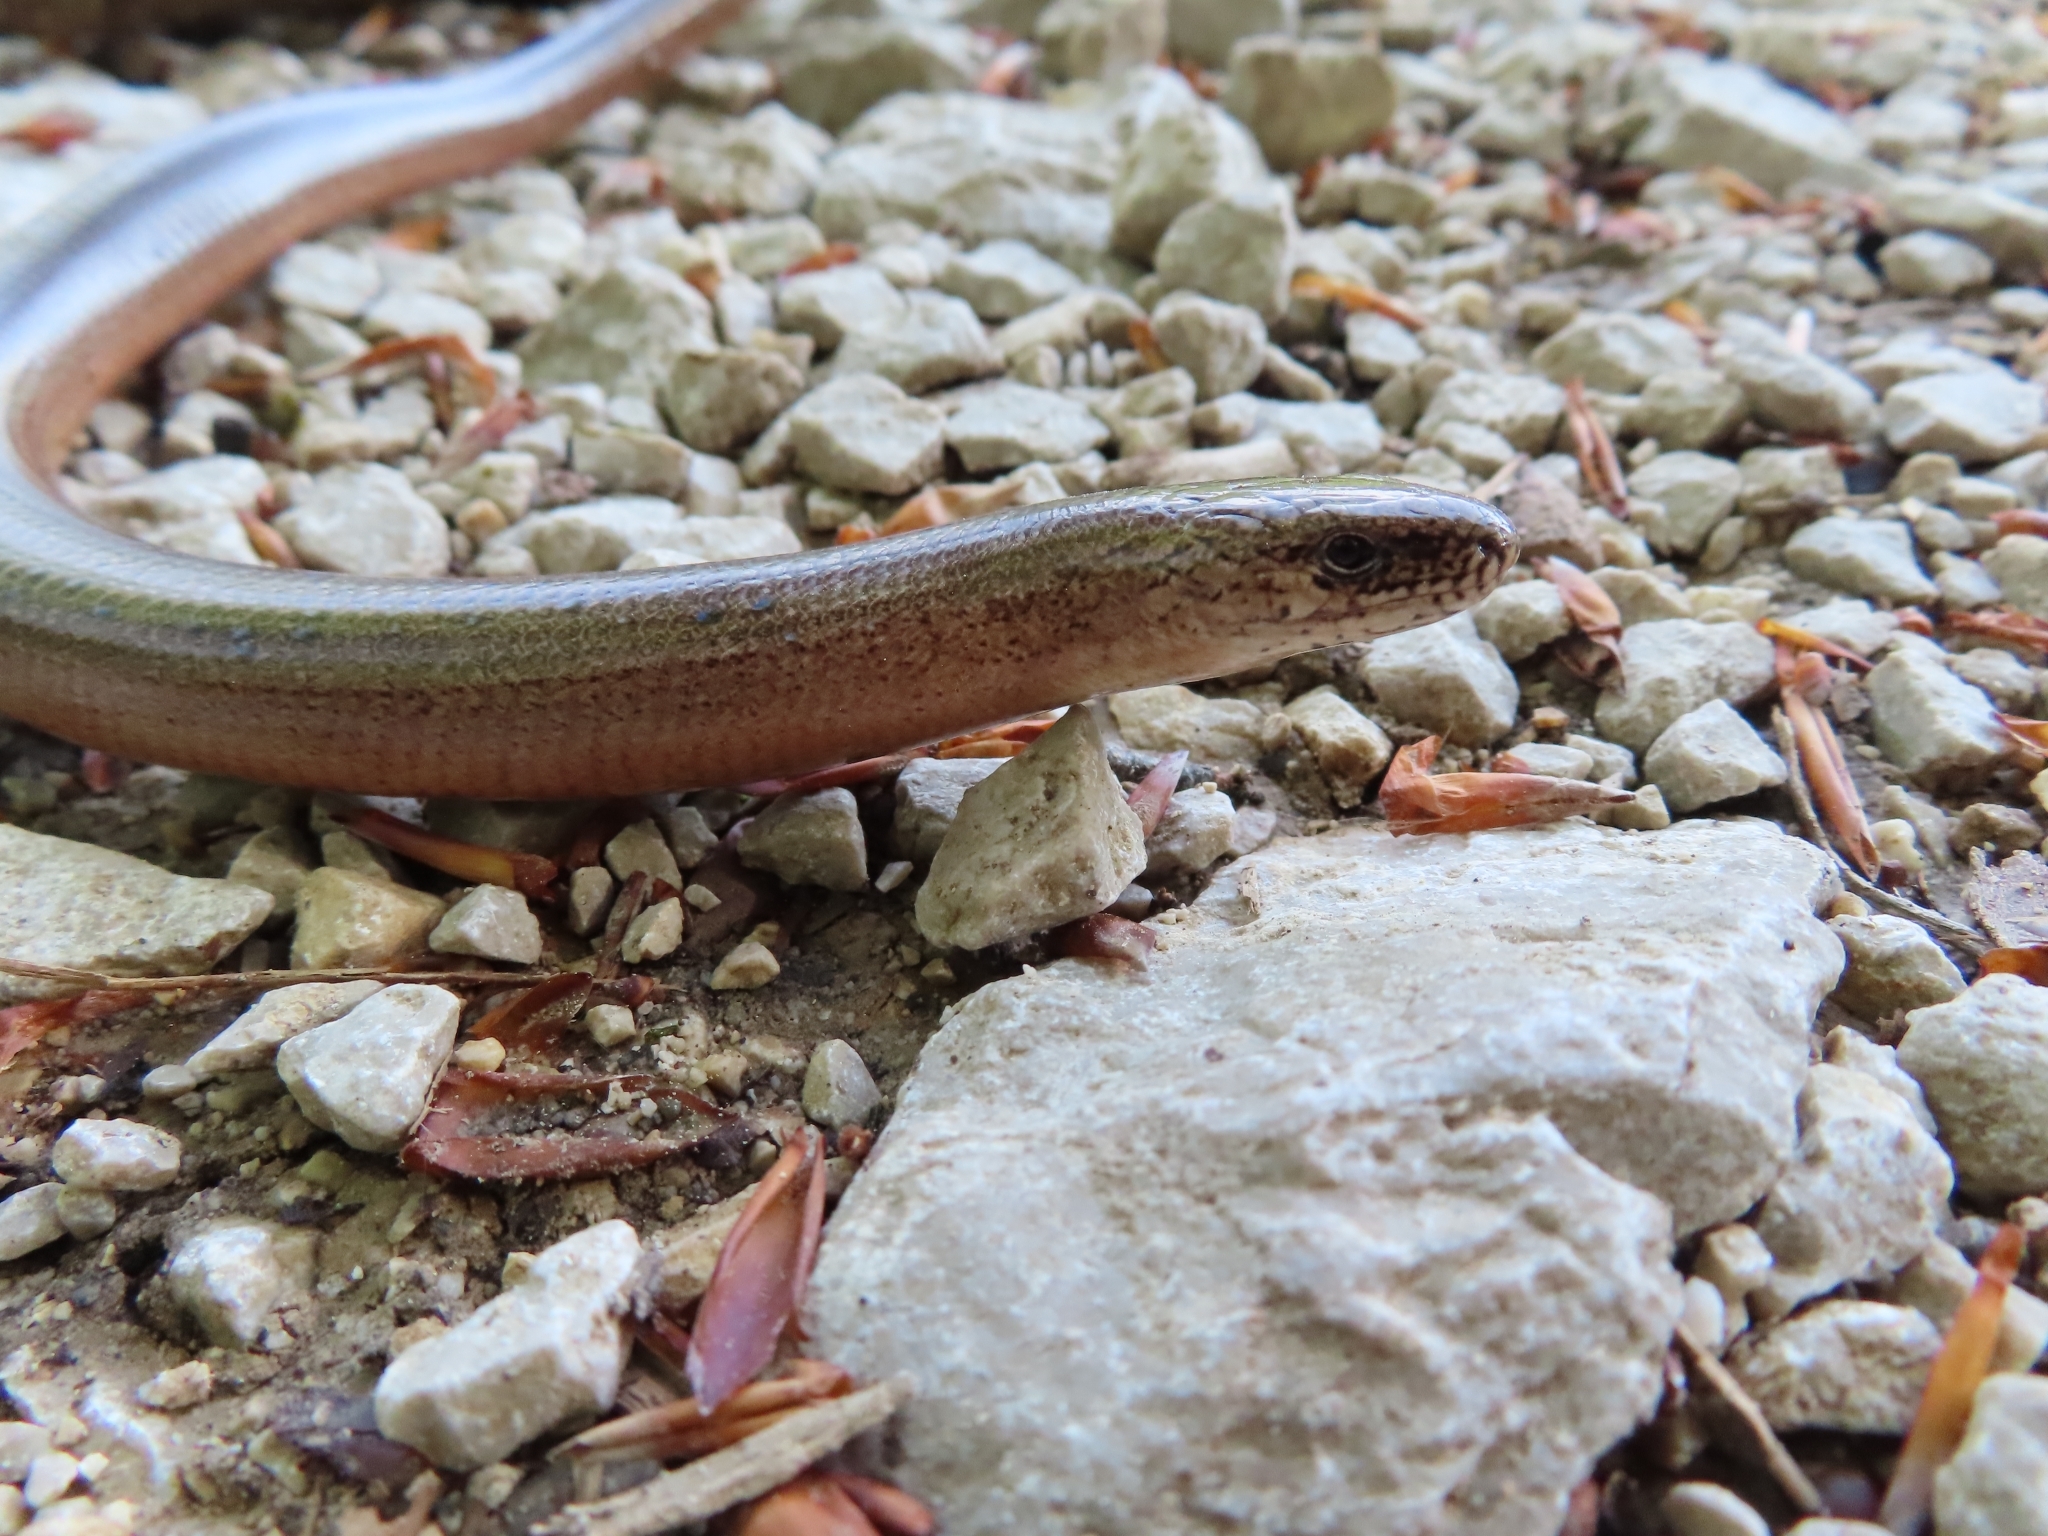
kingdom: Animalia
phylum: Chordata
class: Squamata
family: Anguidae
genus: Anguis
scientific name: Anguis fragilis
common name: Slow worm
